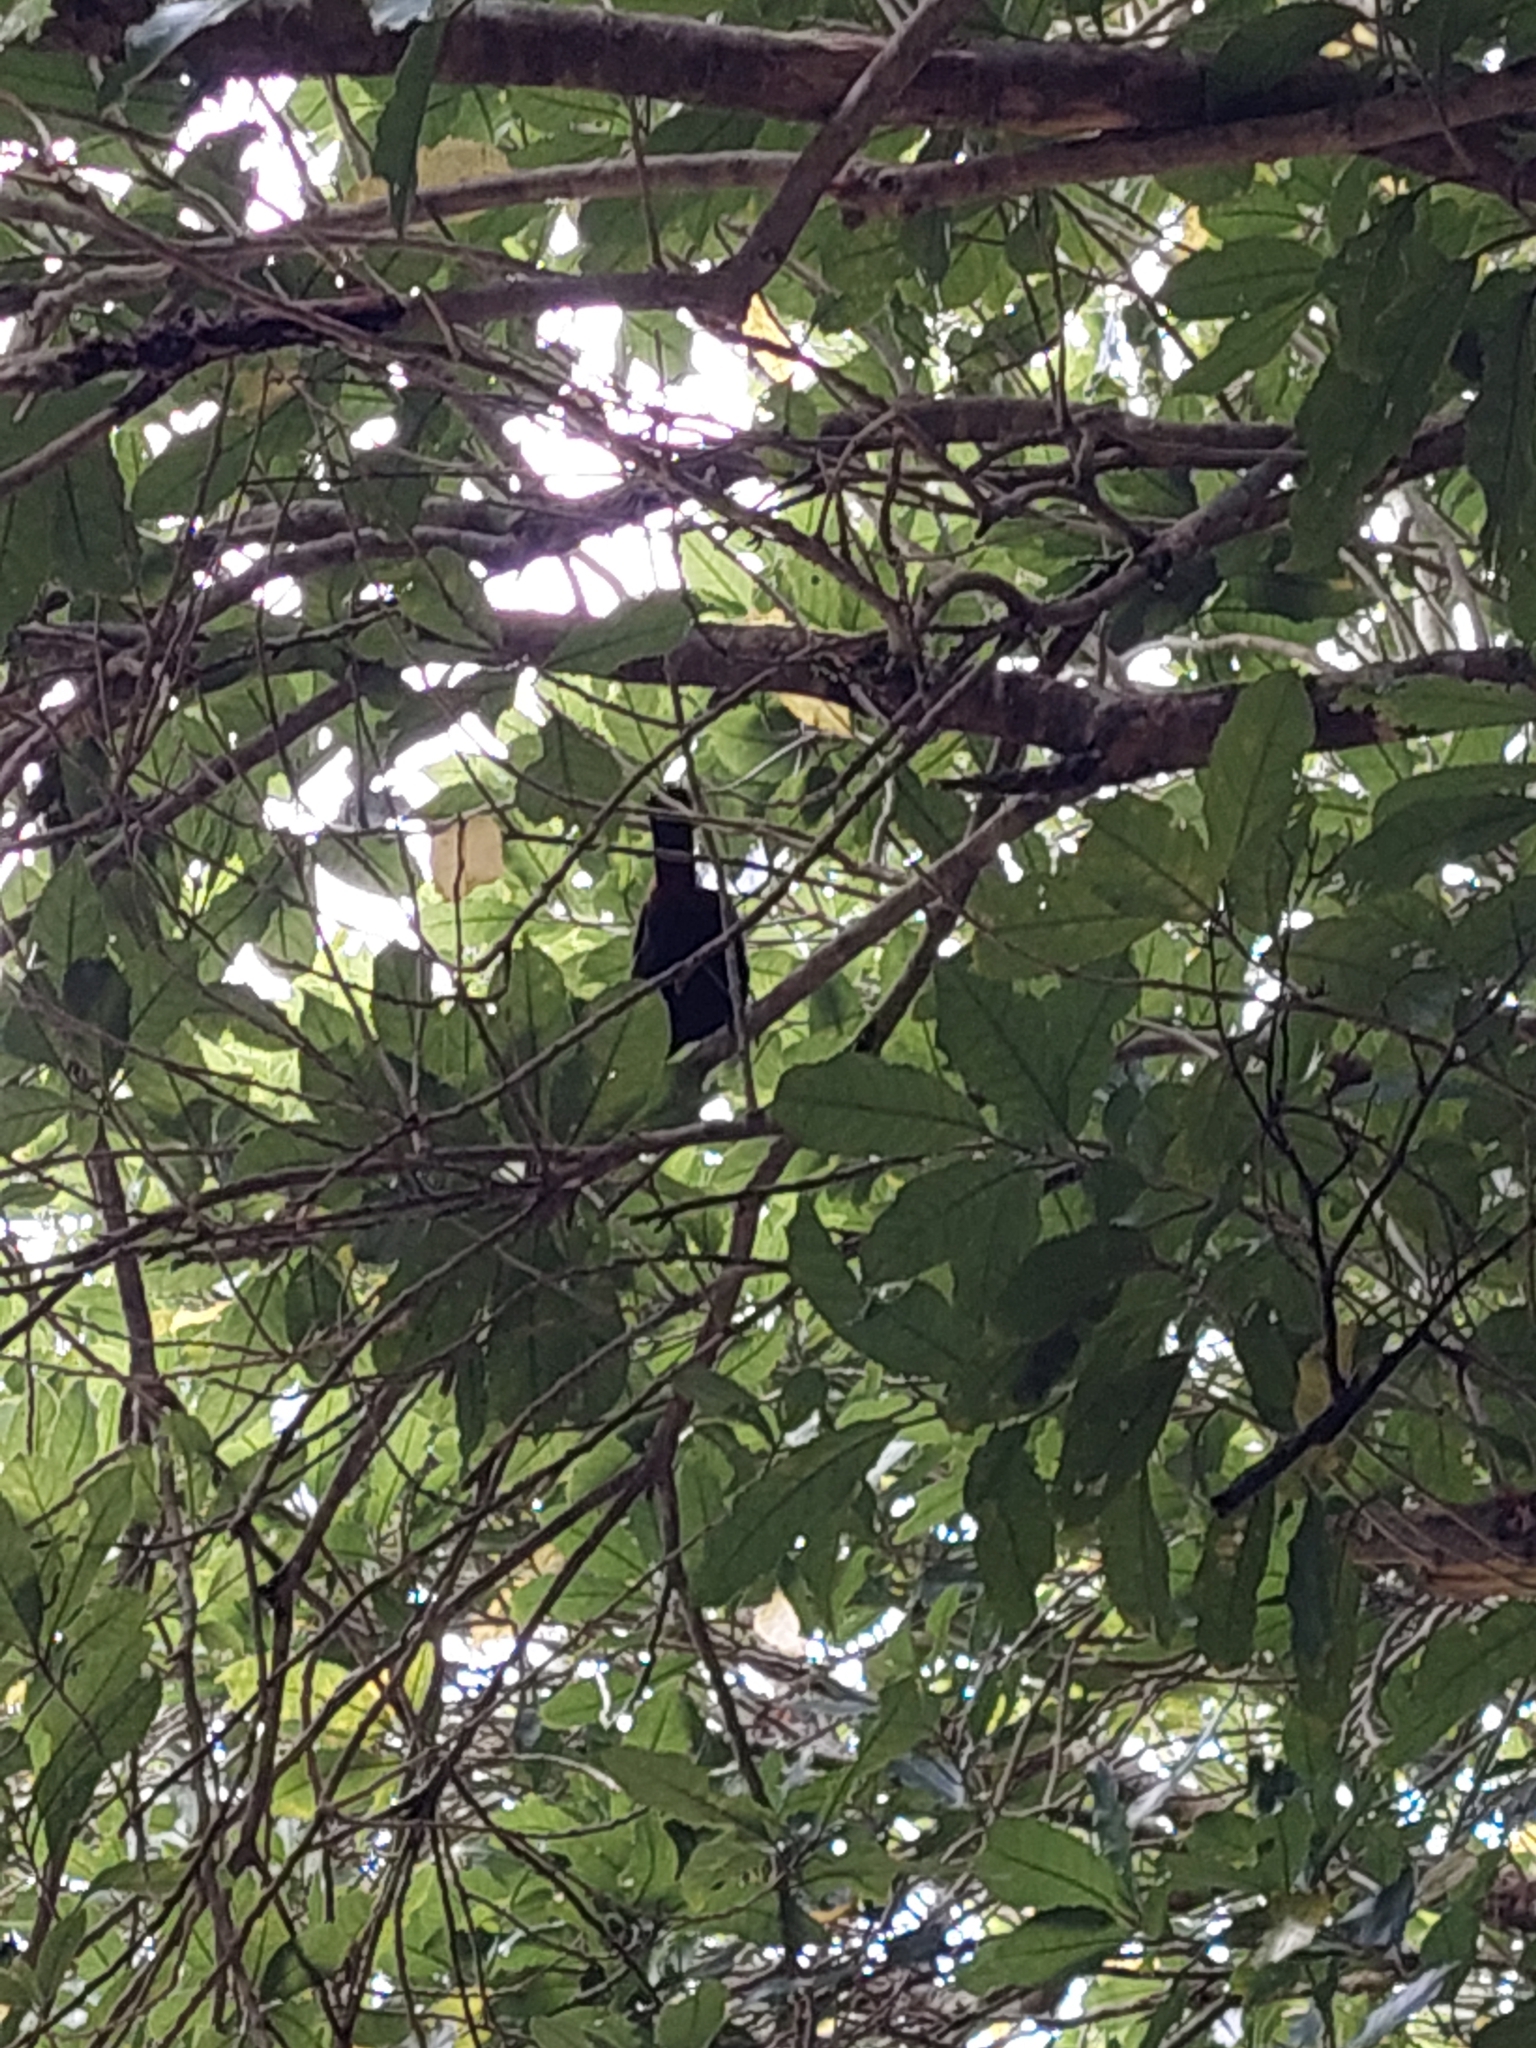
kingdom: Animalia
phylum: Chordata
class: Aves
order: Passeriformes
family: Callaeatidae
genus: Philesturnus
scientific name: Philesturnus carunculatus
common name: South island saddleback
